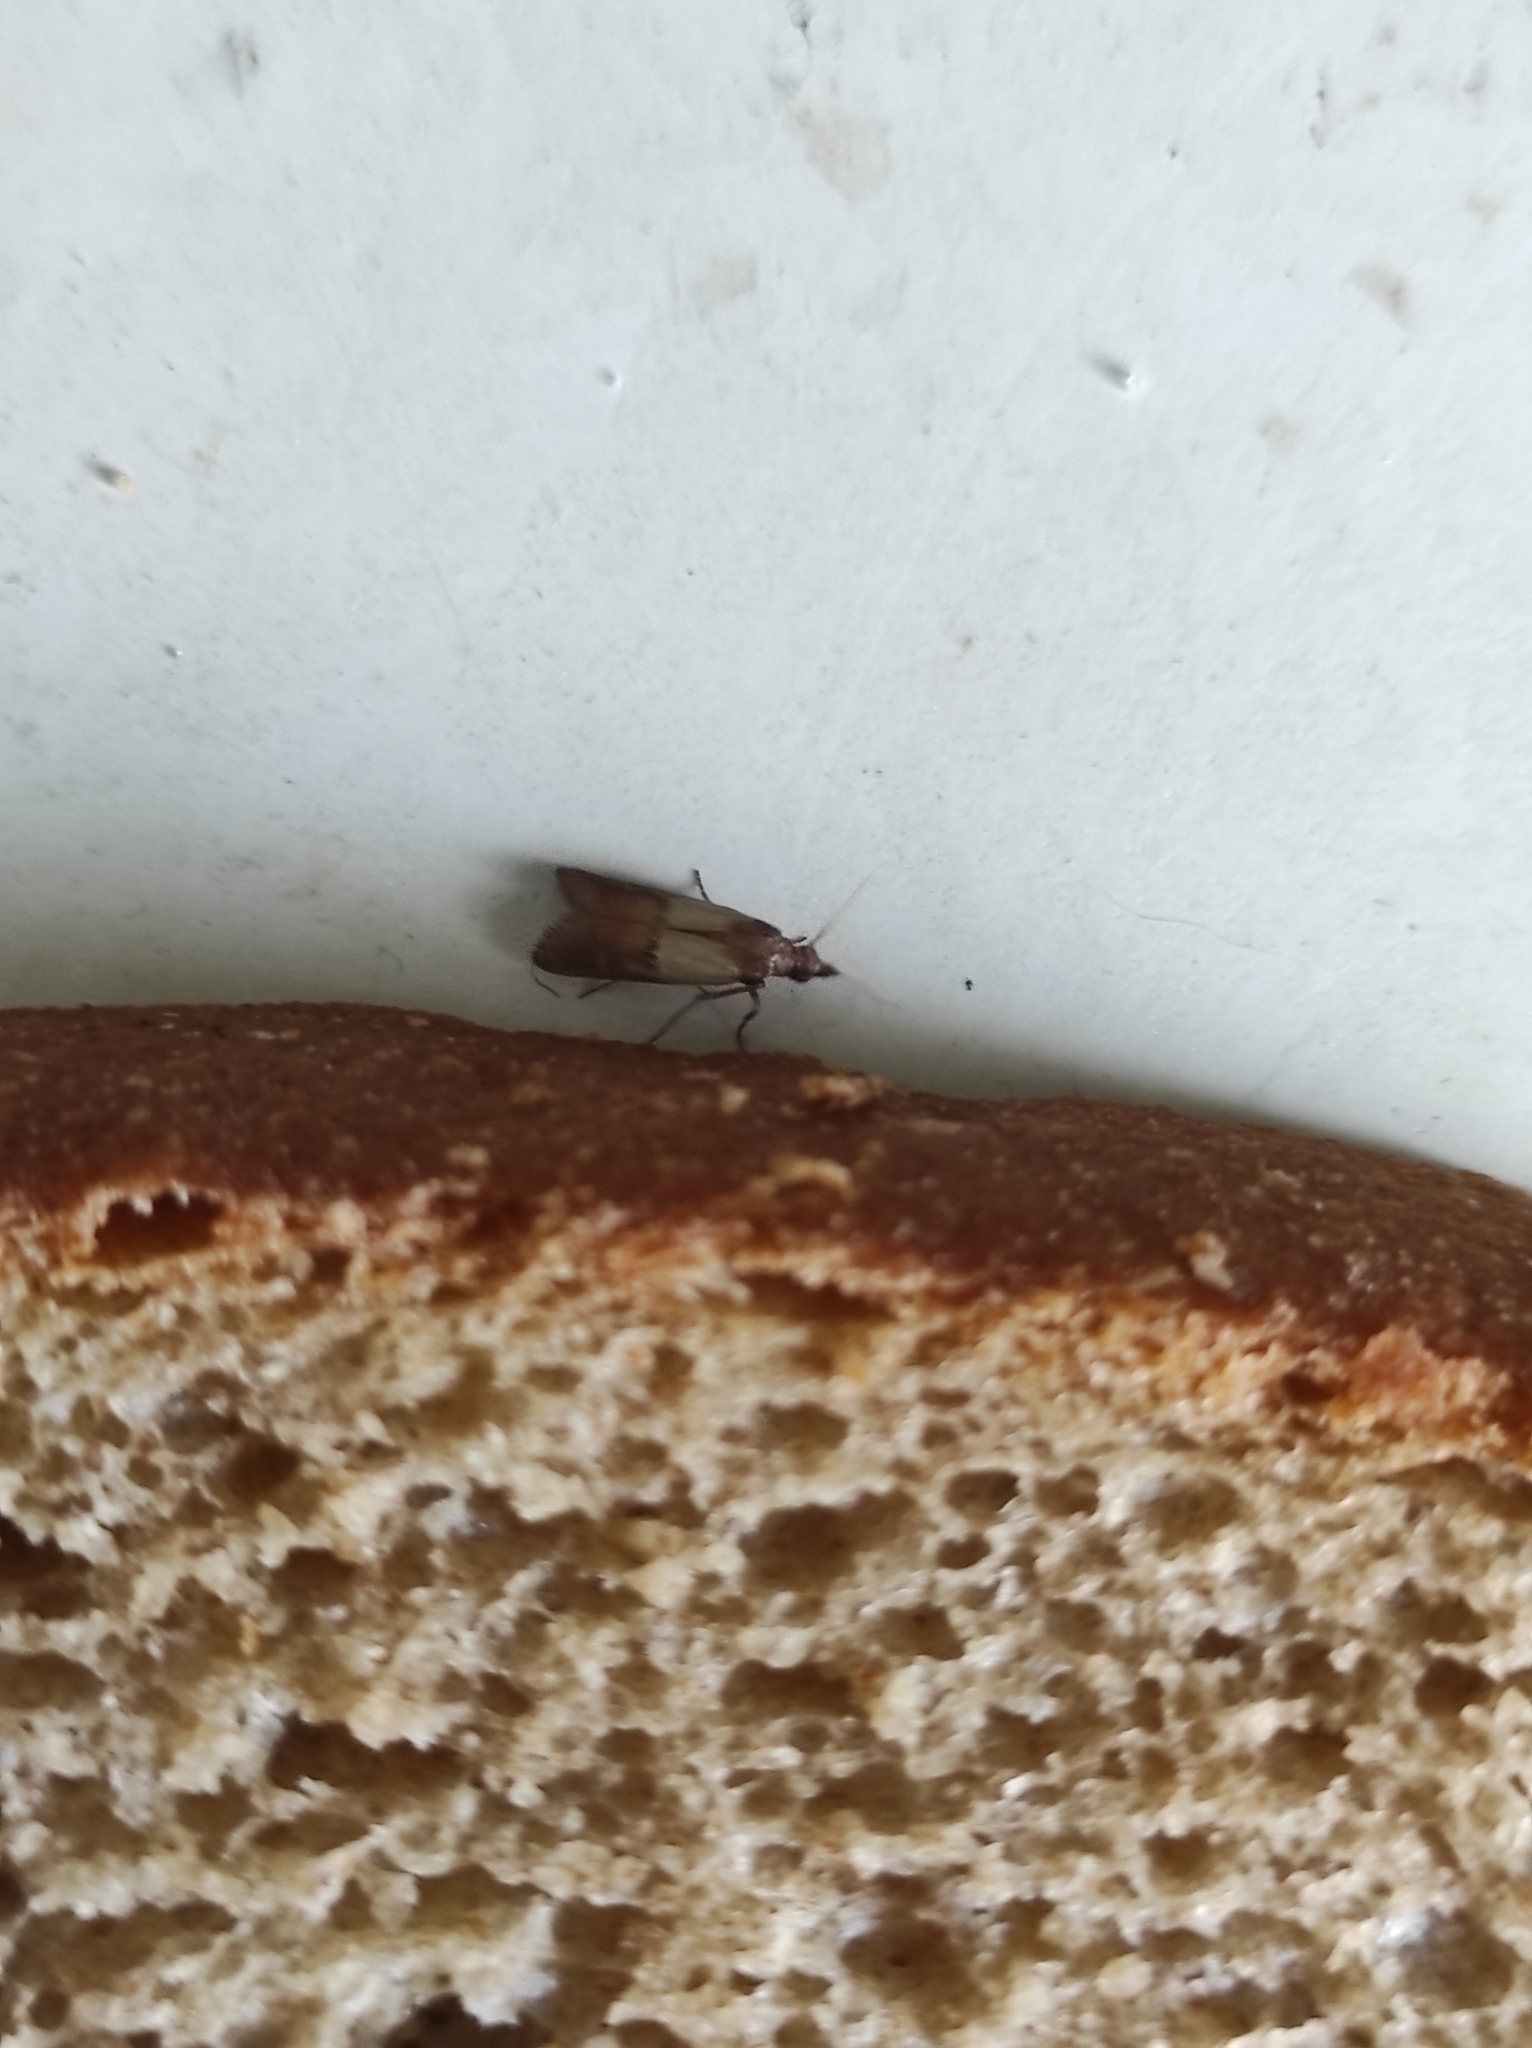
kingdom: Animalia
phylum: Arthropoda
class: Insecta
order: Lepidoptera
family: Pyralidae
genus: Plodia
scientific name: Plodia interpunctella
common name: Indian meal moth
